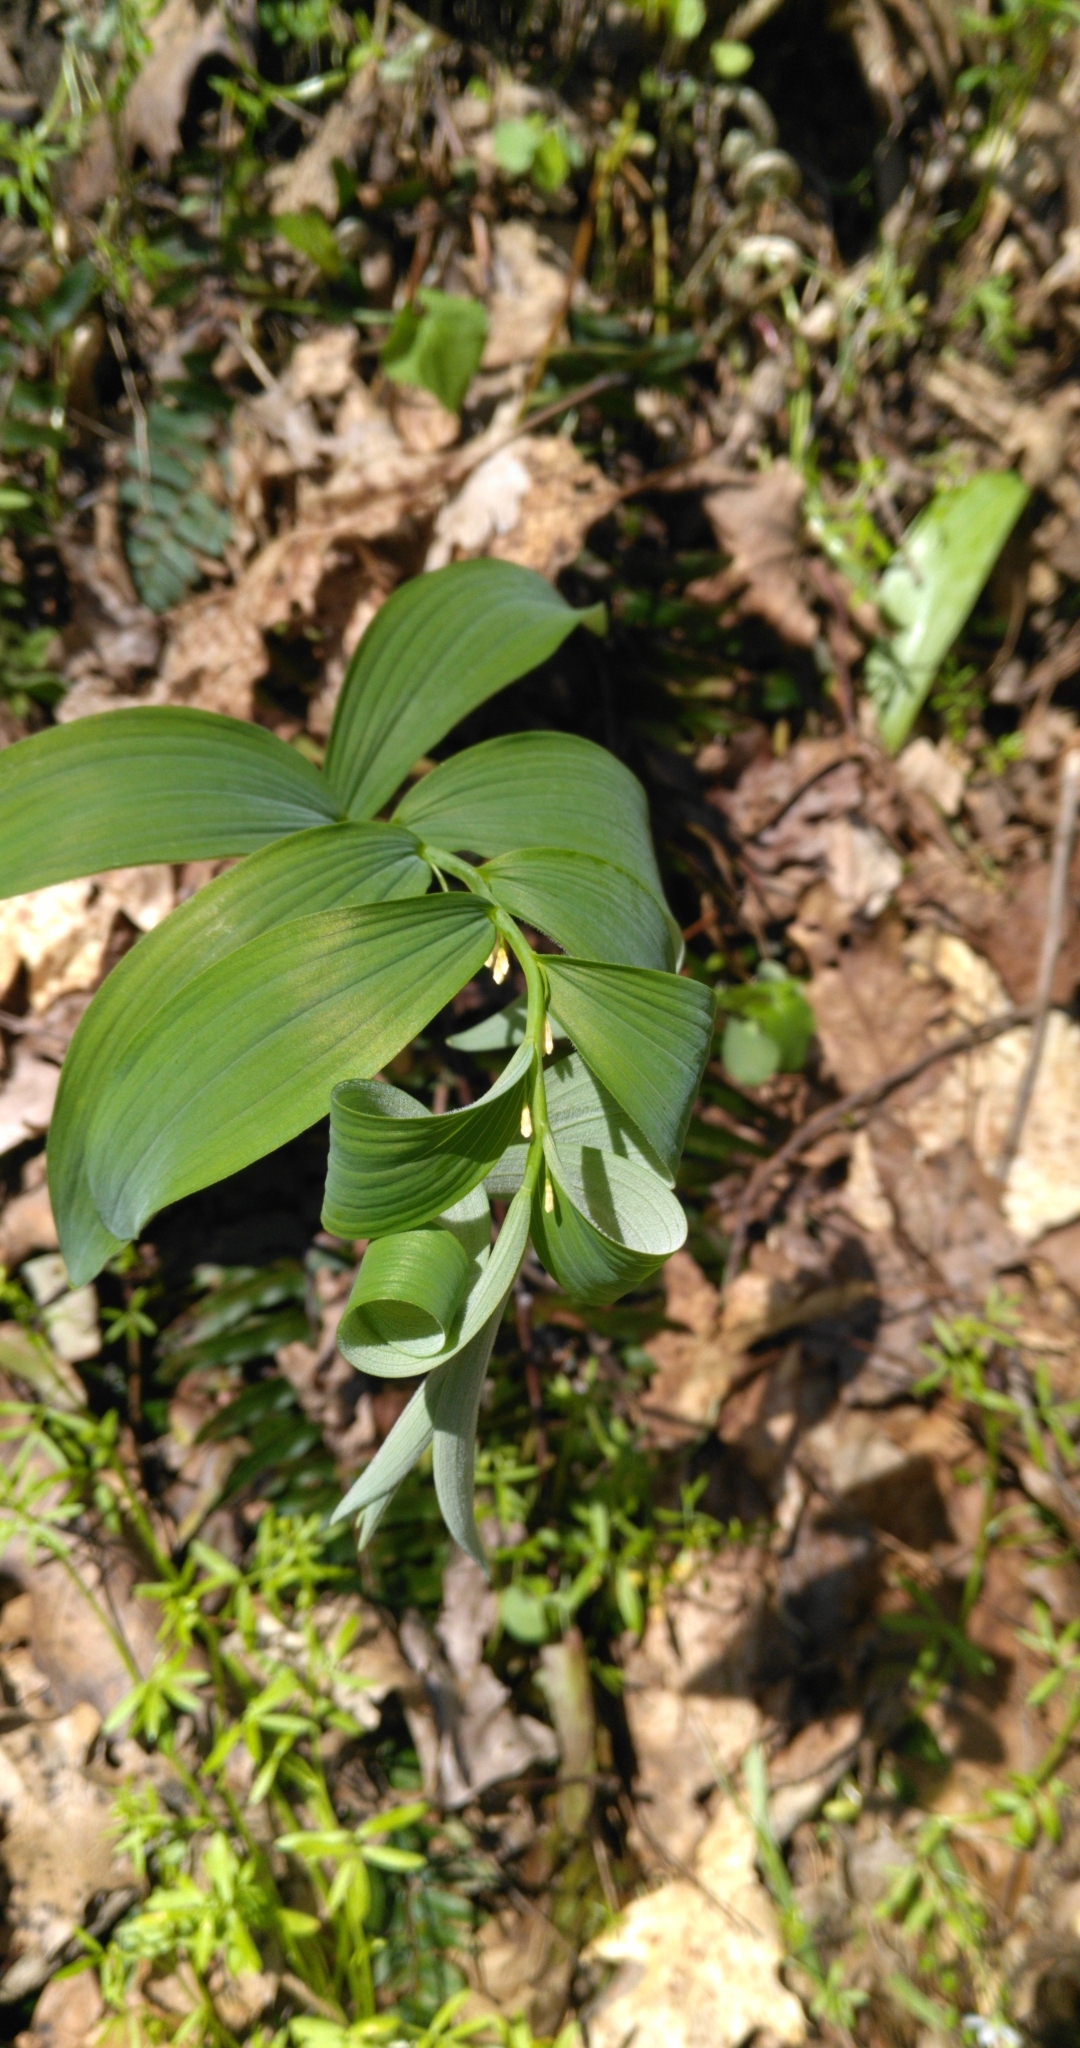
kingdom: Plantae
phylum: Tracheophyta
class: Liliopsida
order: Asparagales
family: Asparagaceae
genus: Polygonatum
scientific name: Polygonatum pubescens
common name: Downy solomon's seal
